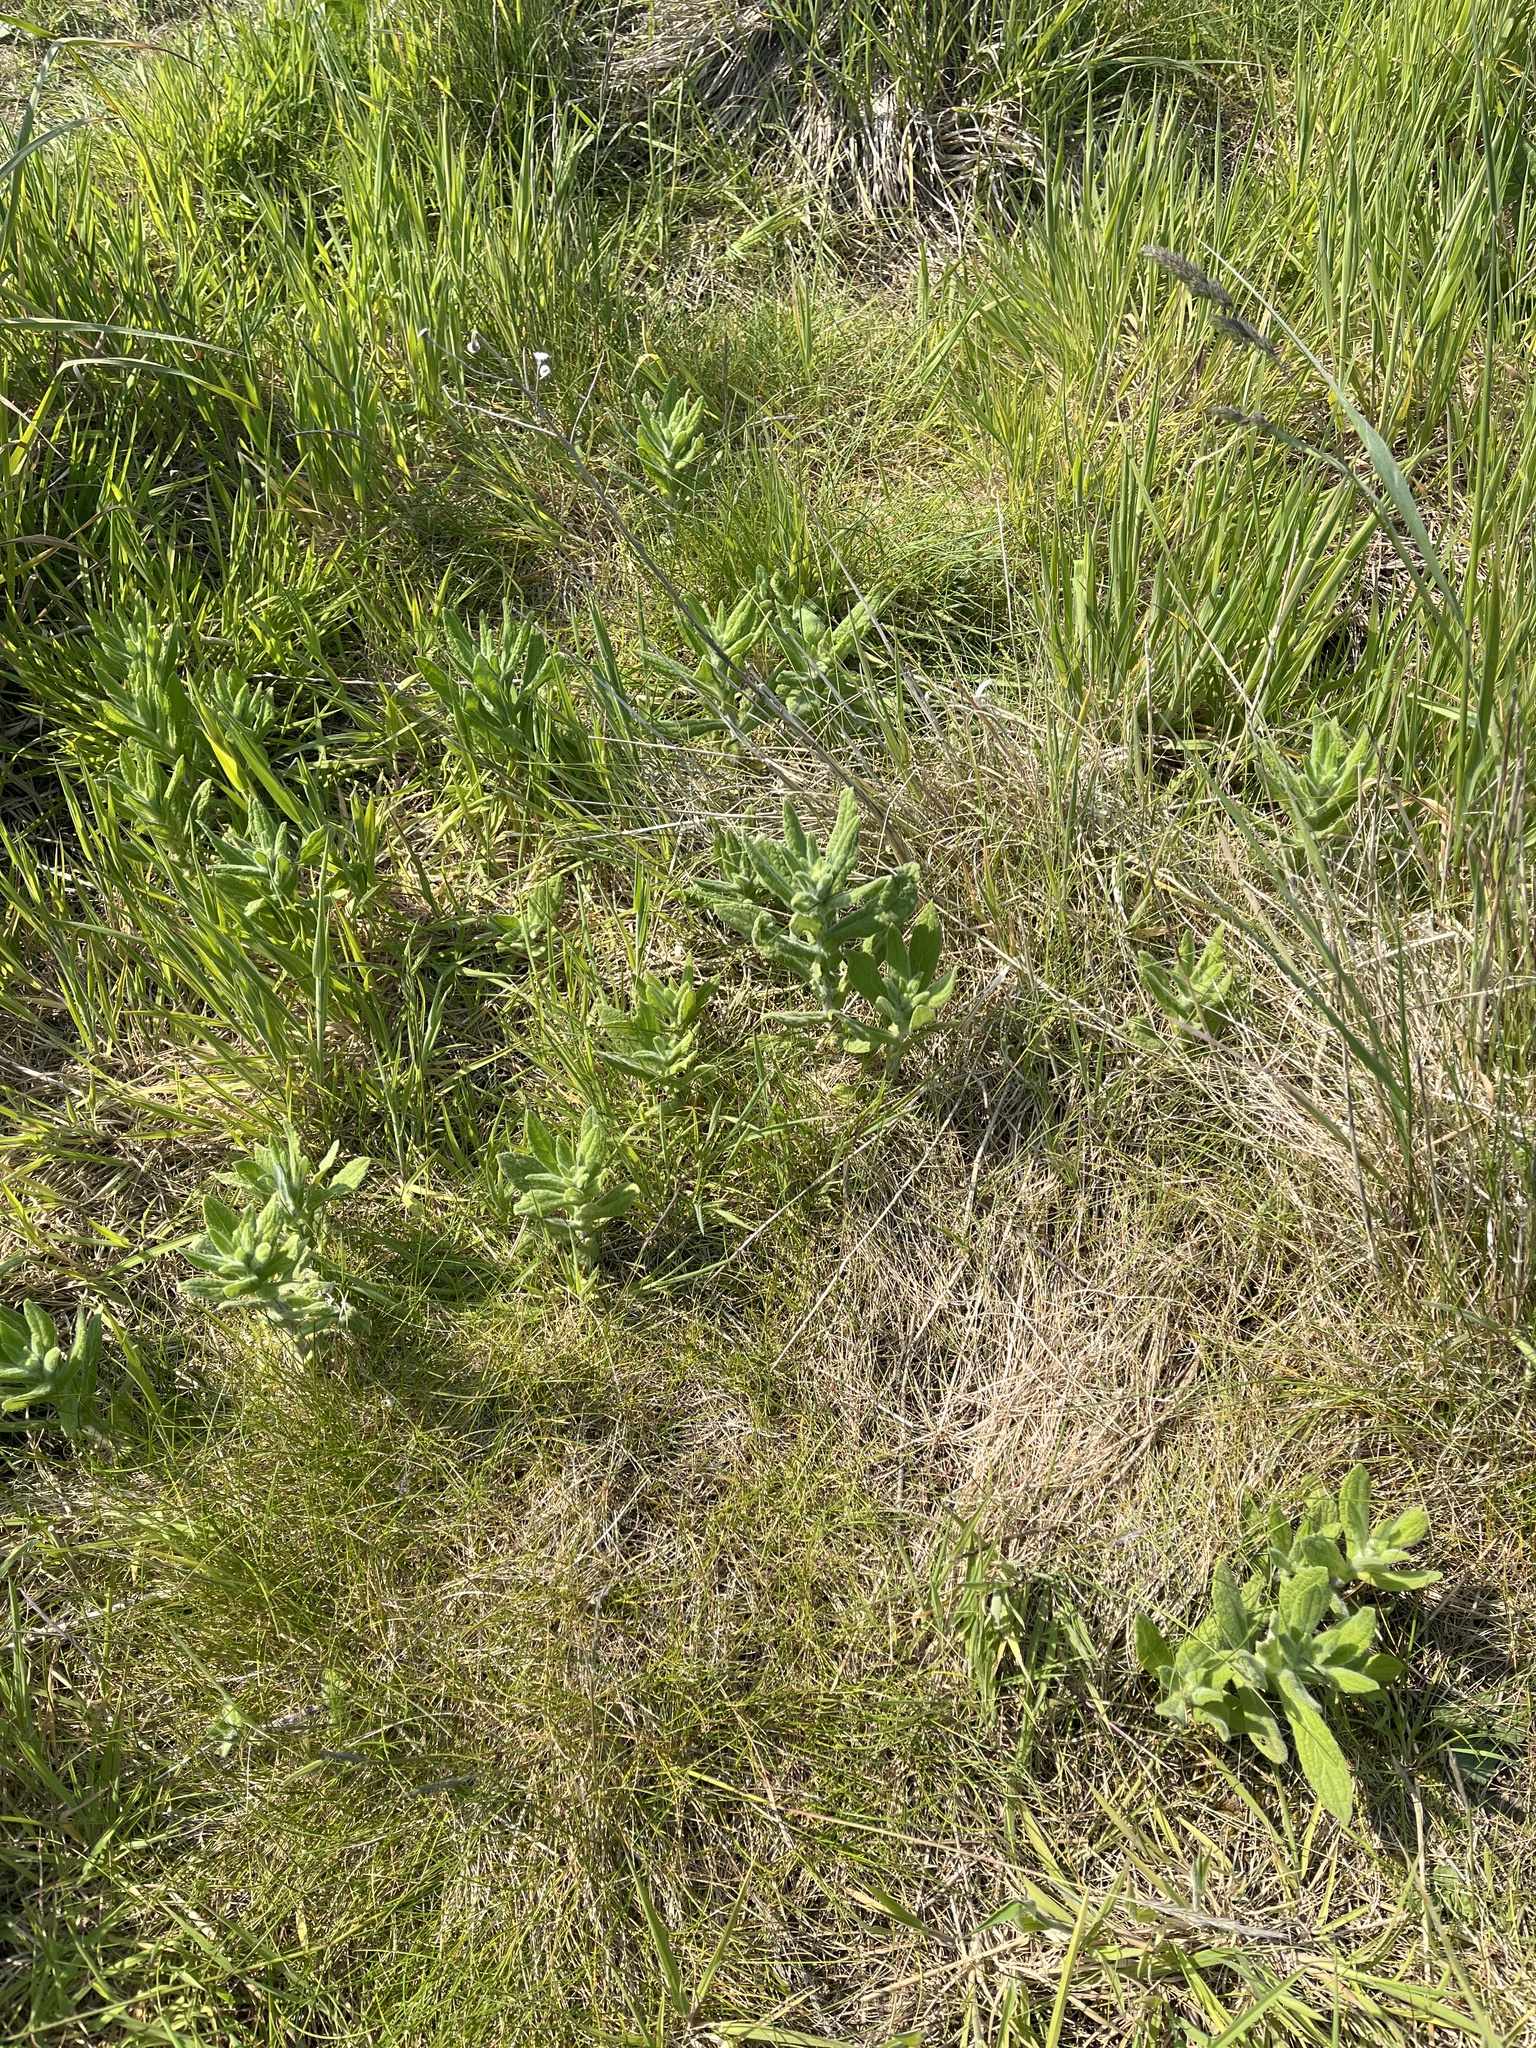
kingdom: Plantae
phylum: Tracheophyta
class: Magnoliopsida
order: Asterales
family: Asteraceae
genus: Pulicaria
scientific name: Pulicaria dysenterica
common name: Common fleabane
